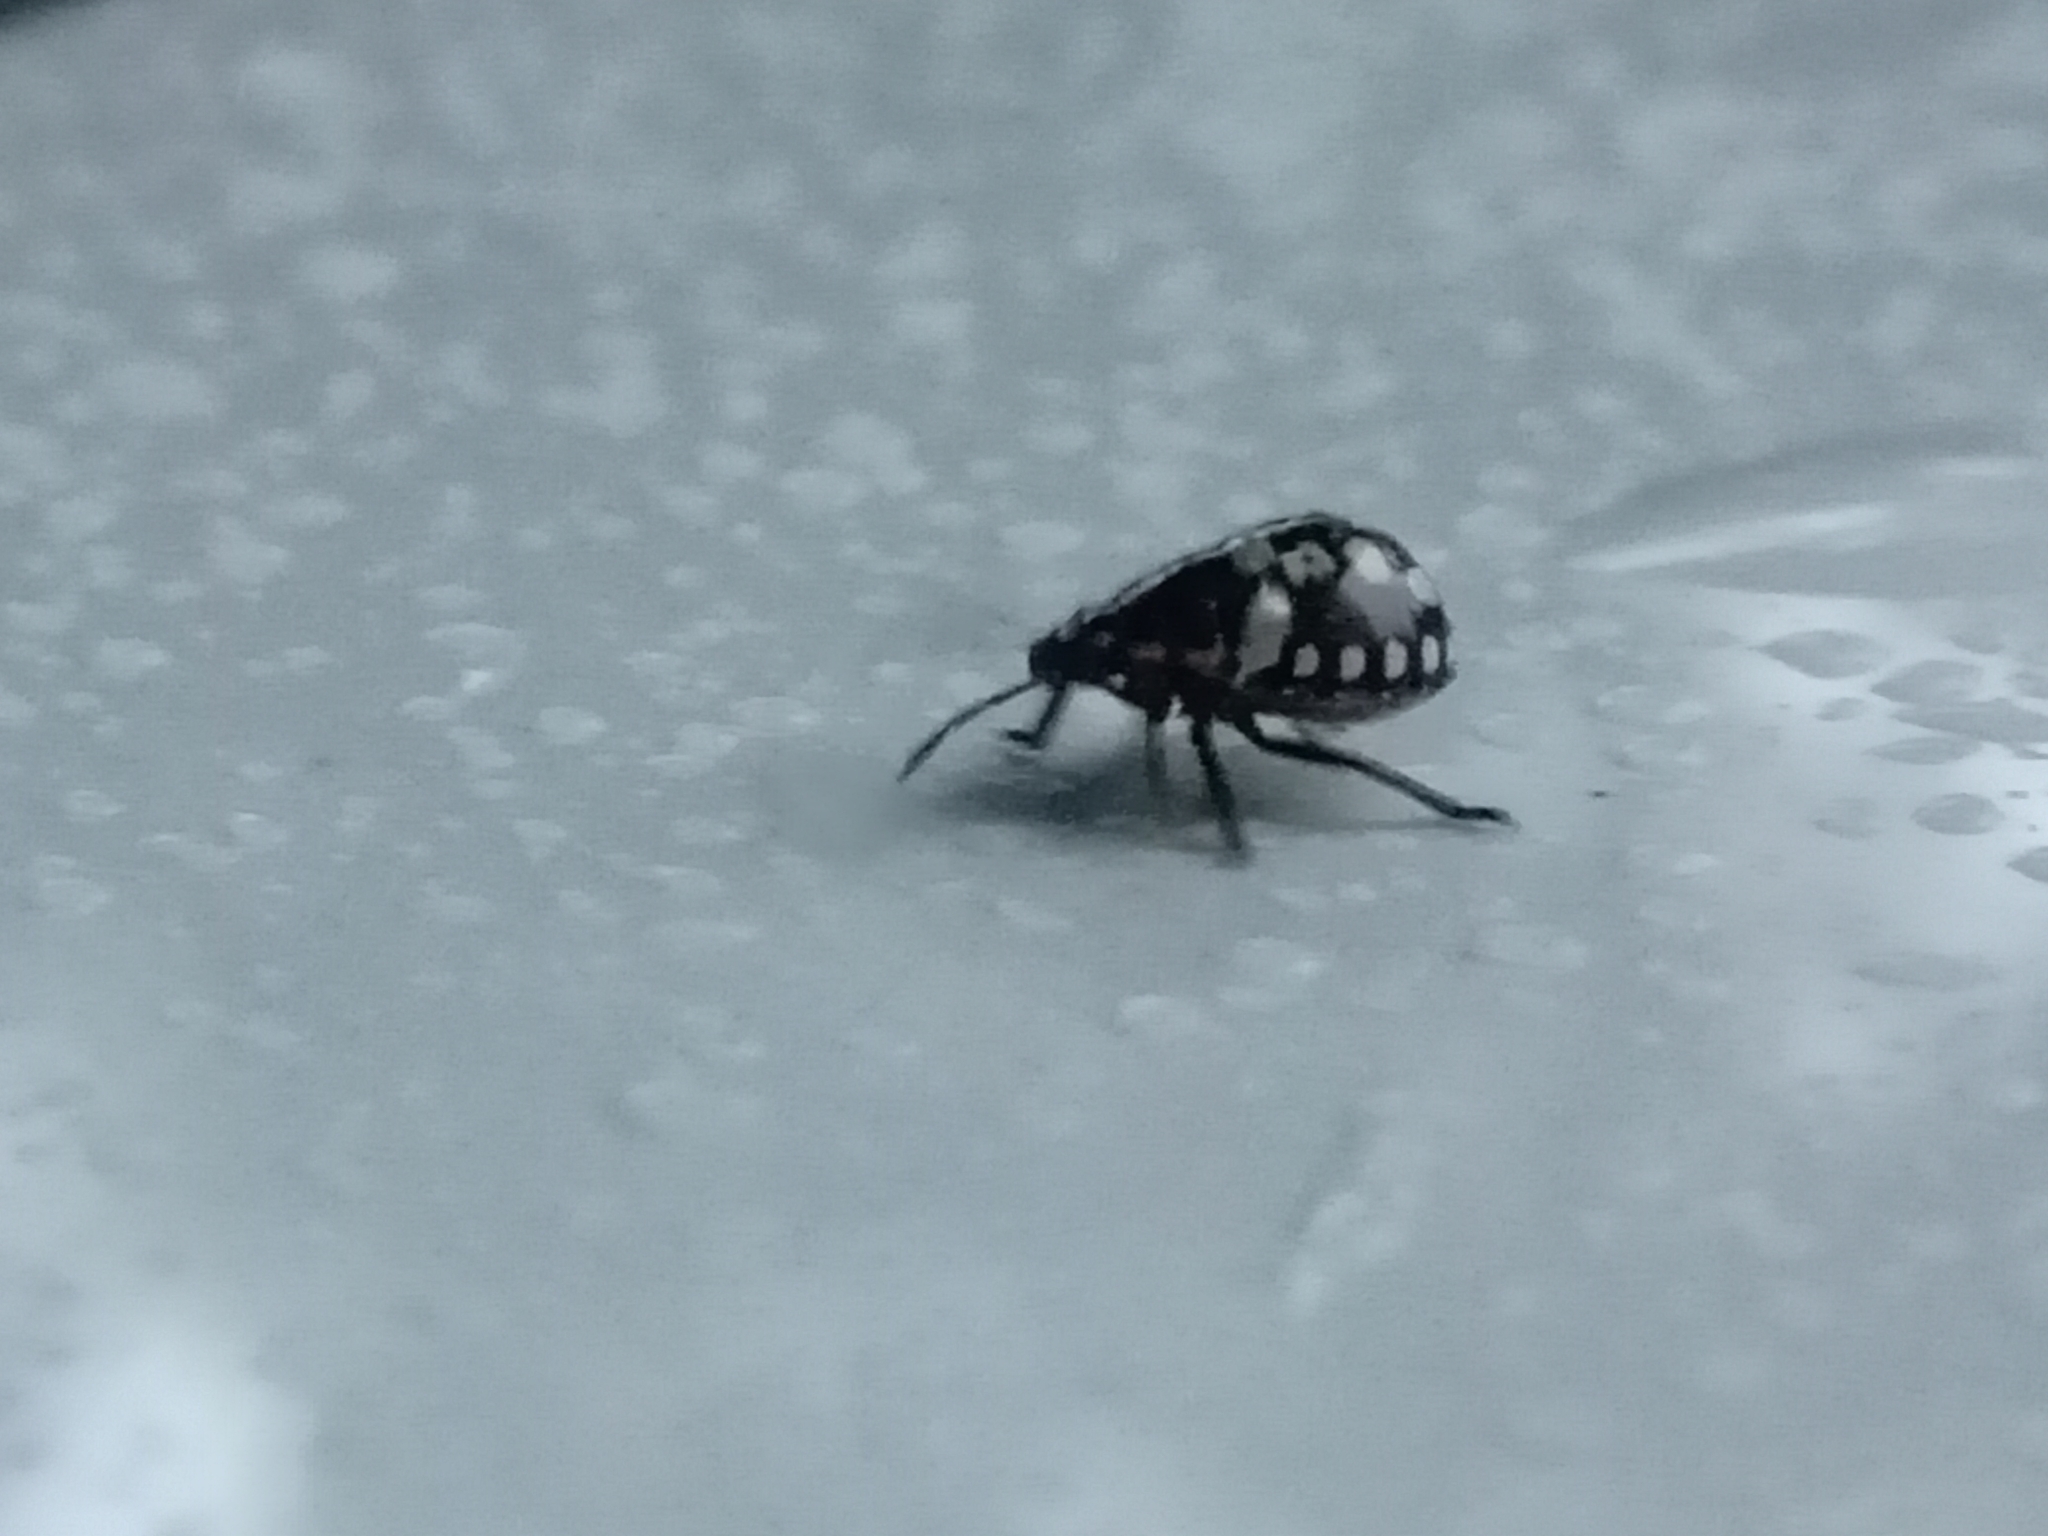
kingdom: Animalia
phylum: Arthropoda
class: Insecta
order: Hemiptera
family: Pentatomidae
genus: Nezara
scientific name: Nezara viridula
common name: Southern green stink bug
